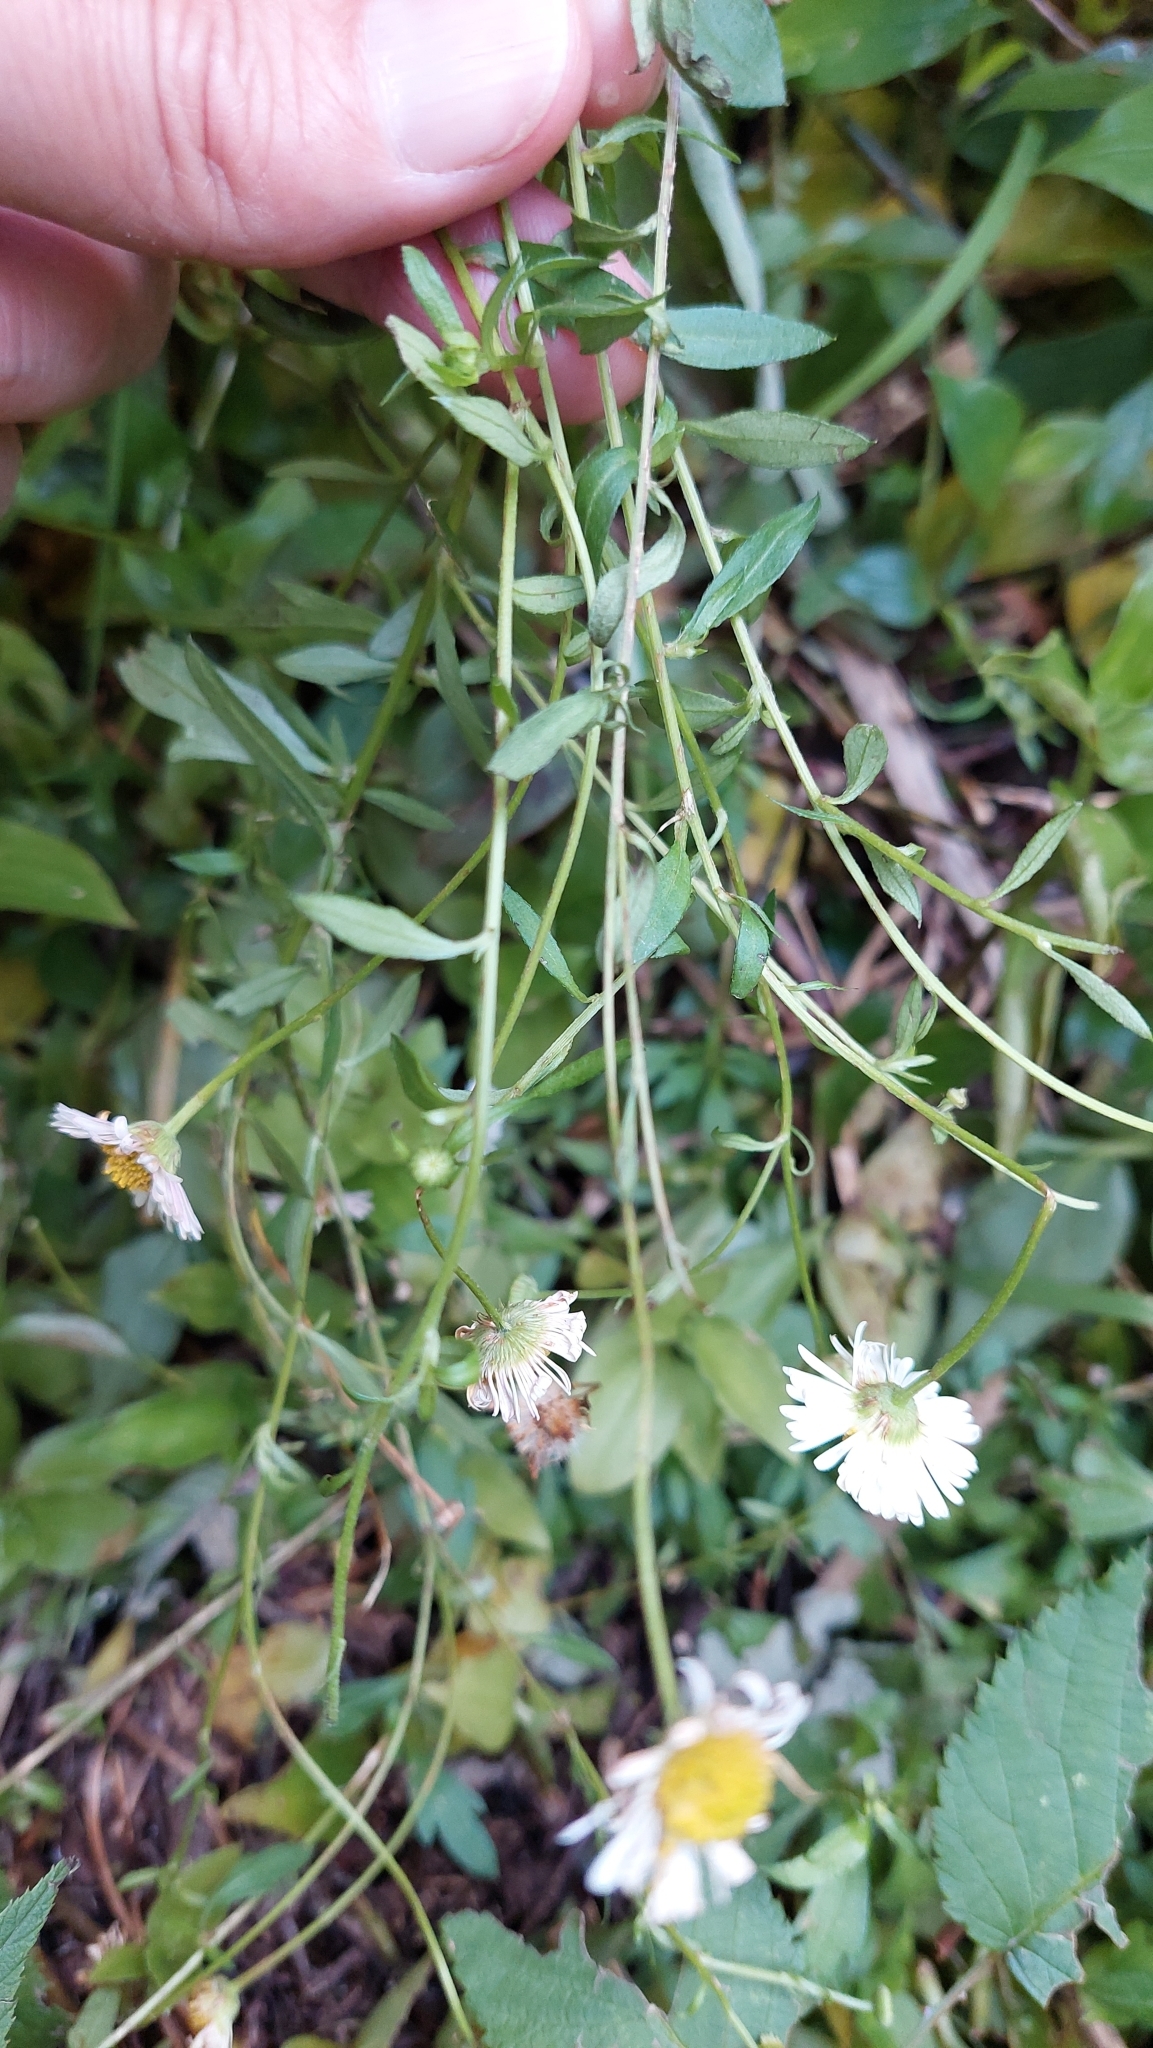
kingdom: Plantae
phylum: Tracheophyta
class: Magnoliopsida
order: Asterales
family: Asteraceae
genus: Erigeron
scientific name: Erigeron karvinskianus
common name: Mexican fleabane
